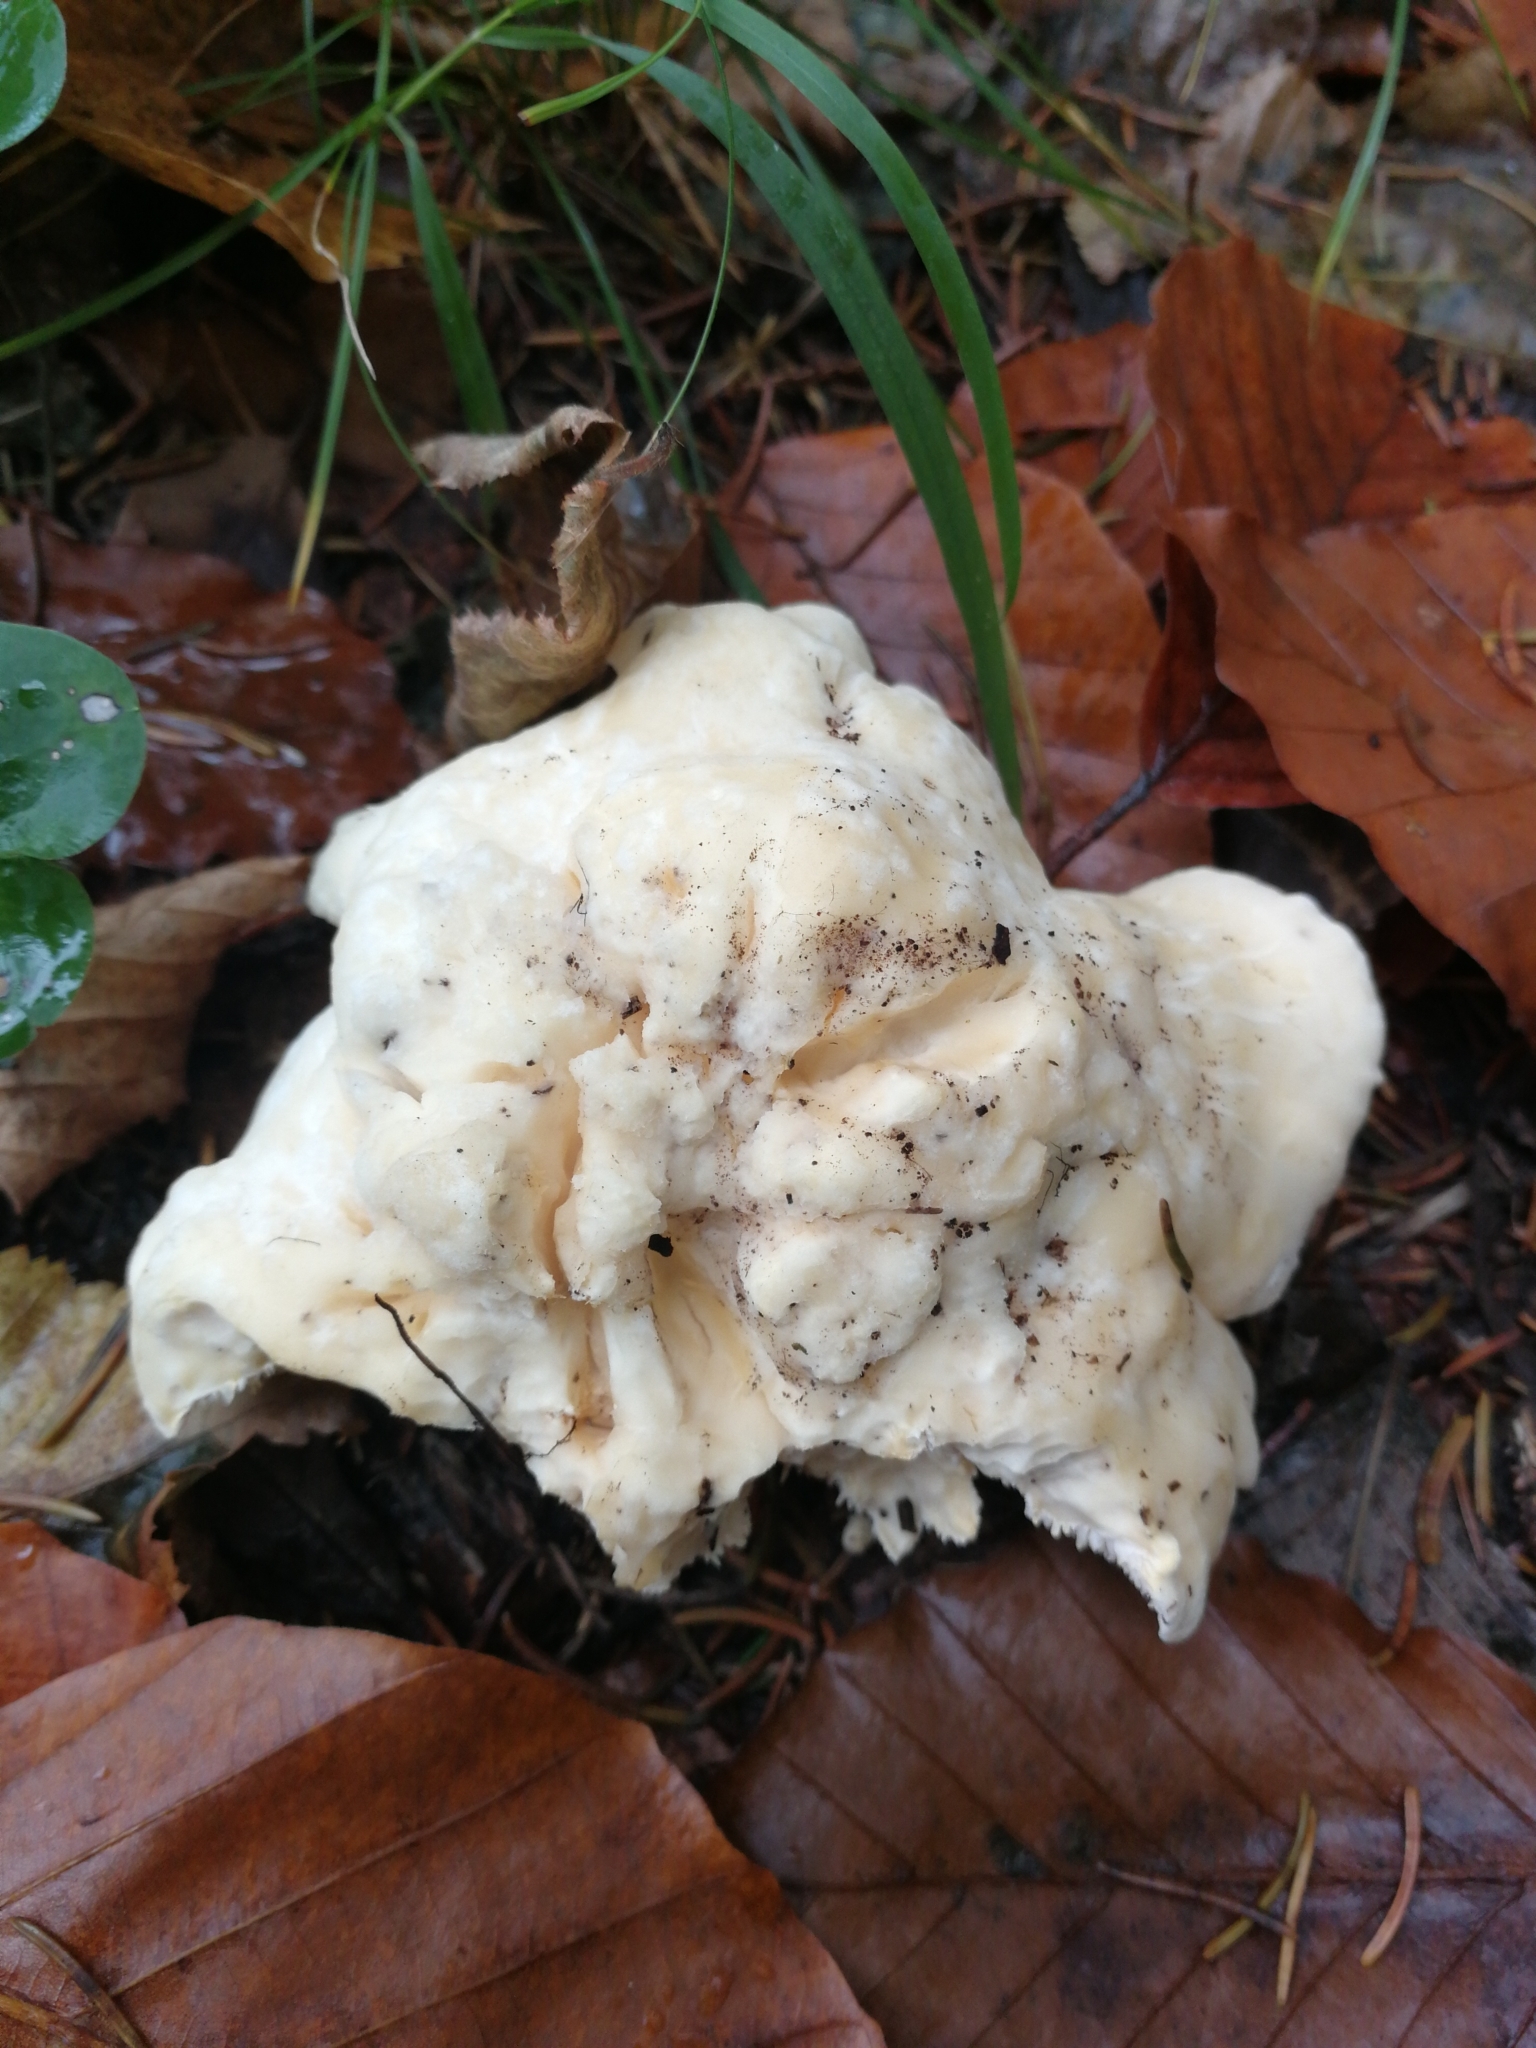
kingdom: Fungi
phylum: Basidiomycota
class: Agaricomycetes
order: Cantharellales
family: Hydnaceae
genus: Hydnum
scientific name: Hydnum repandum
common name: Wood hedgehog
